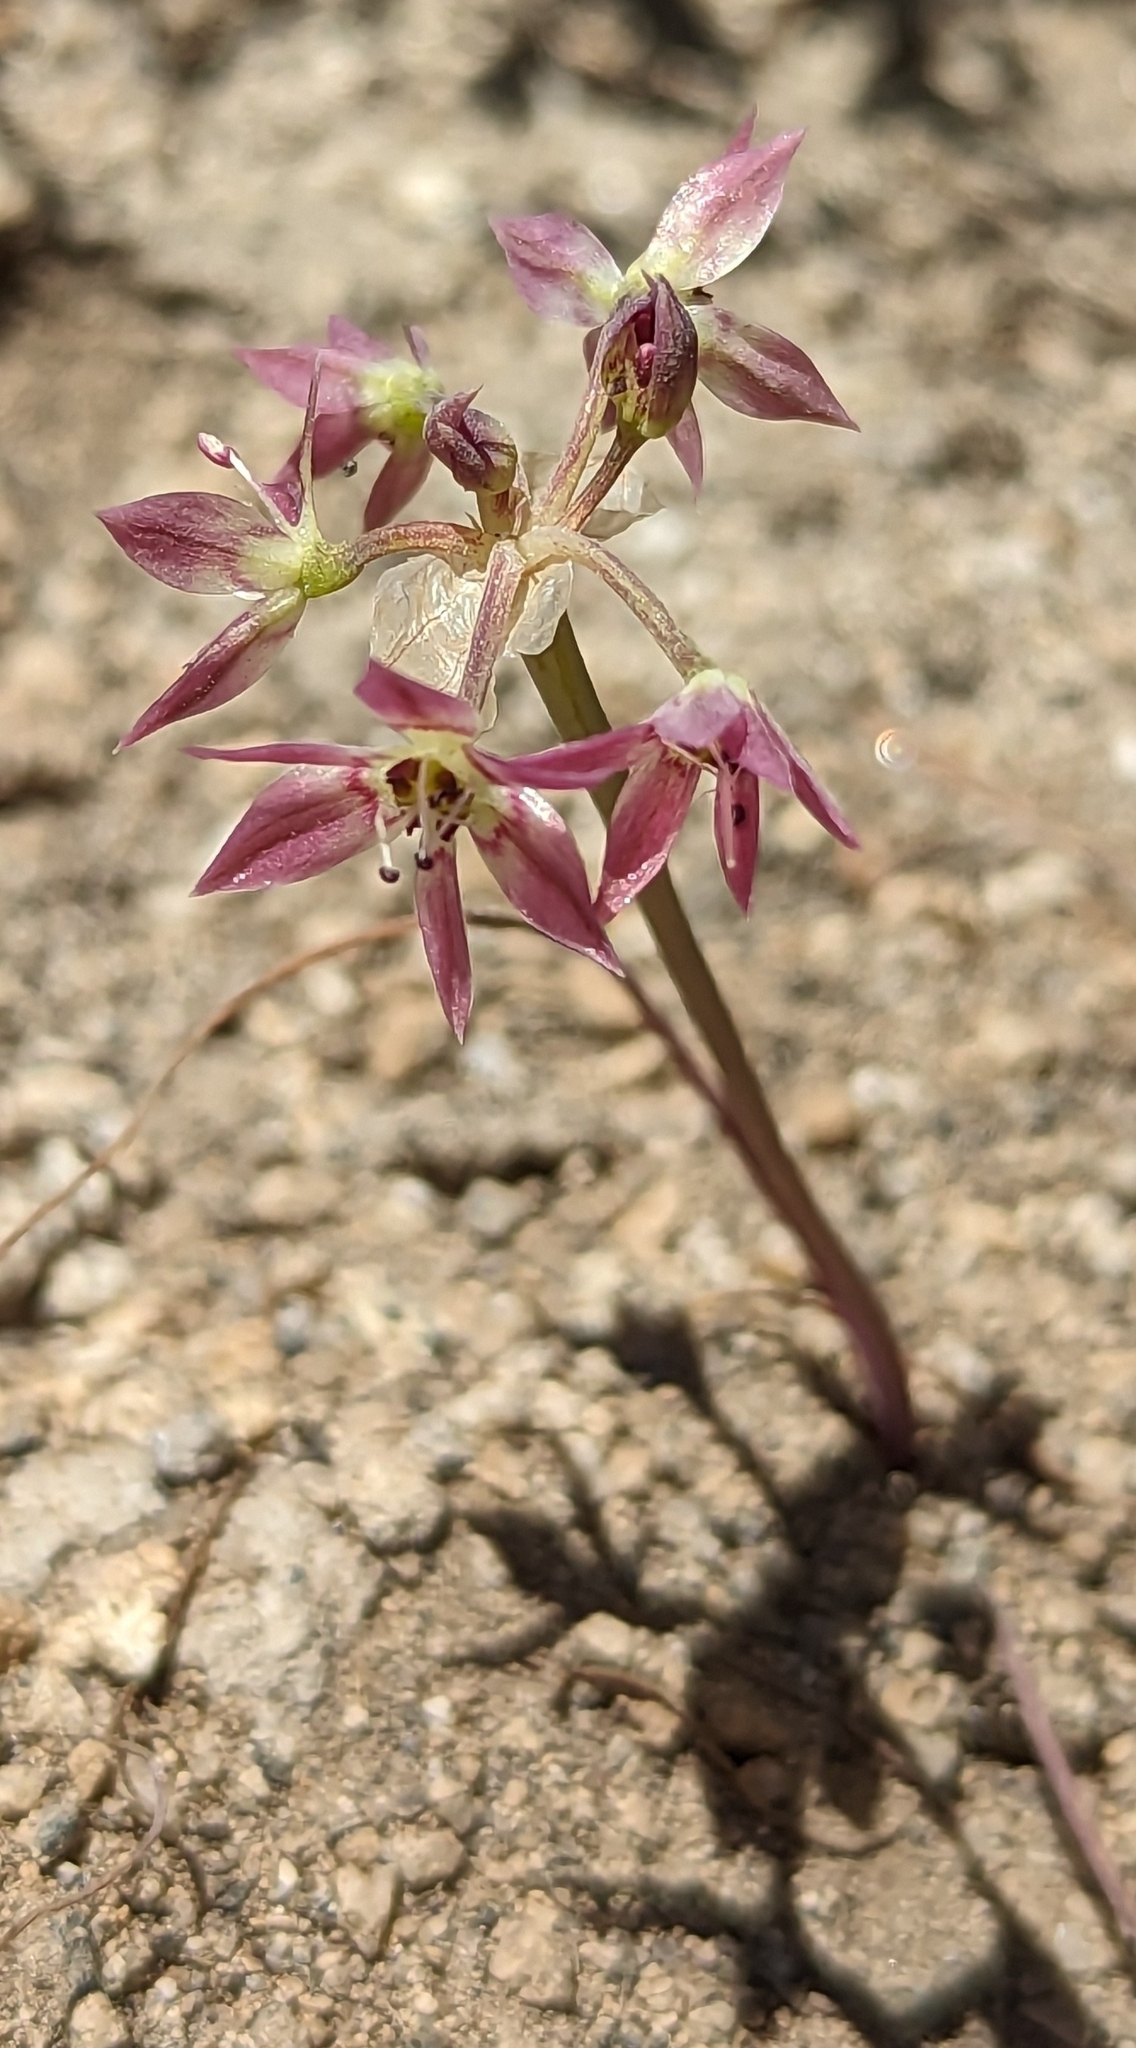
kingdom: Plantae
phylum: Tracheophyta
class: Liliopsida
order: Asparagales
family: Amaryllidaceae
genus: Allium
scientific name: Allium campanulatum
